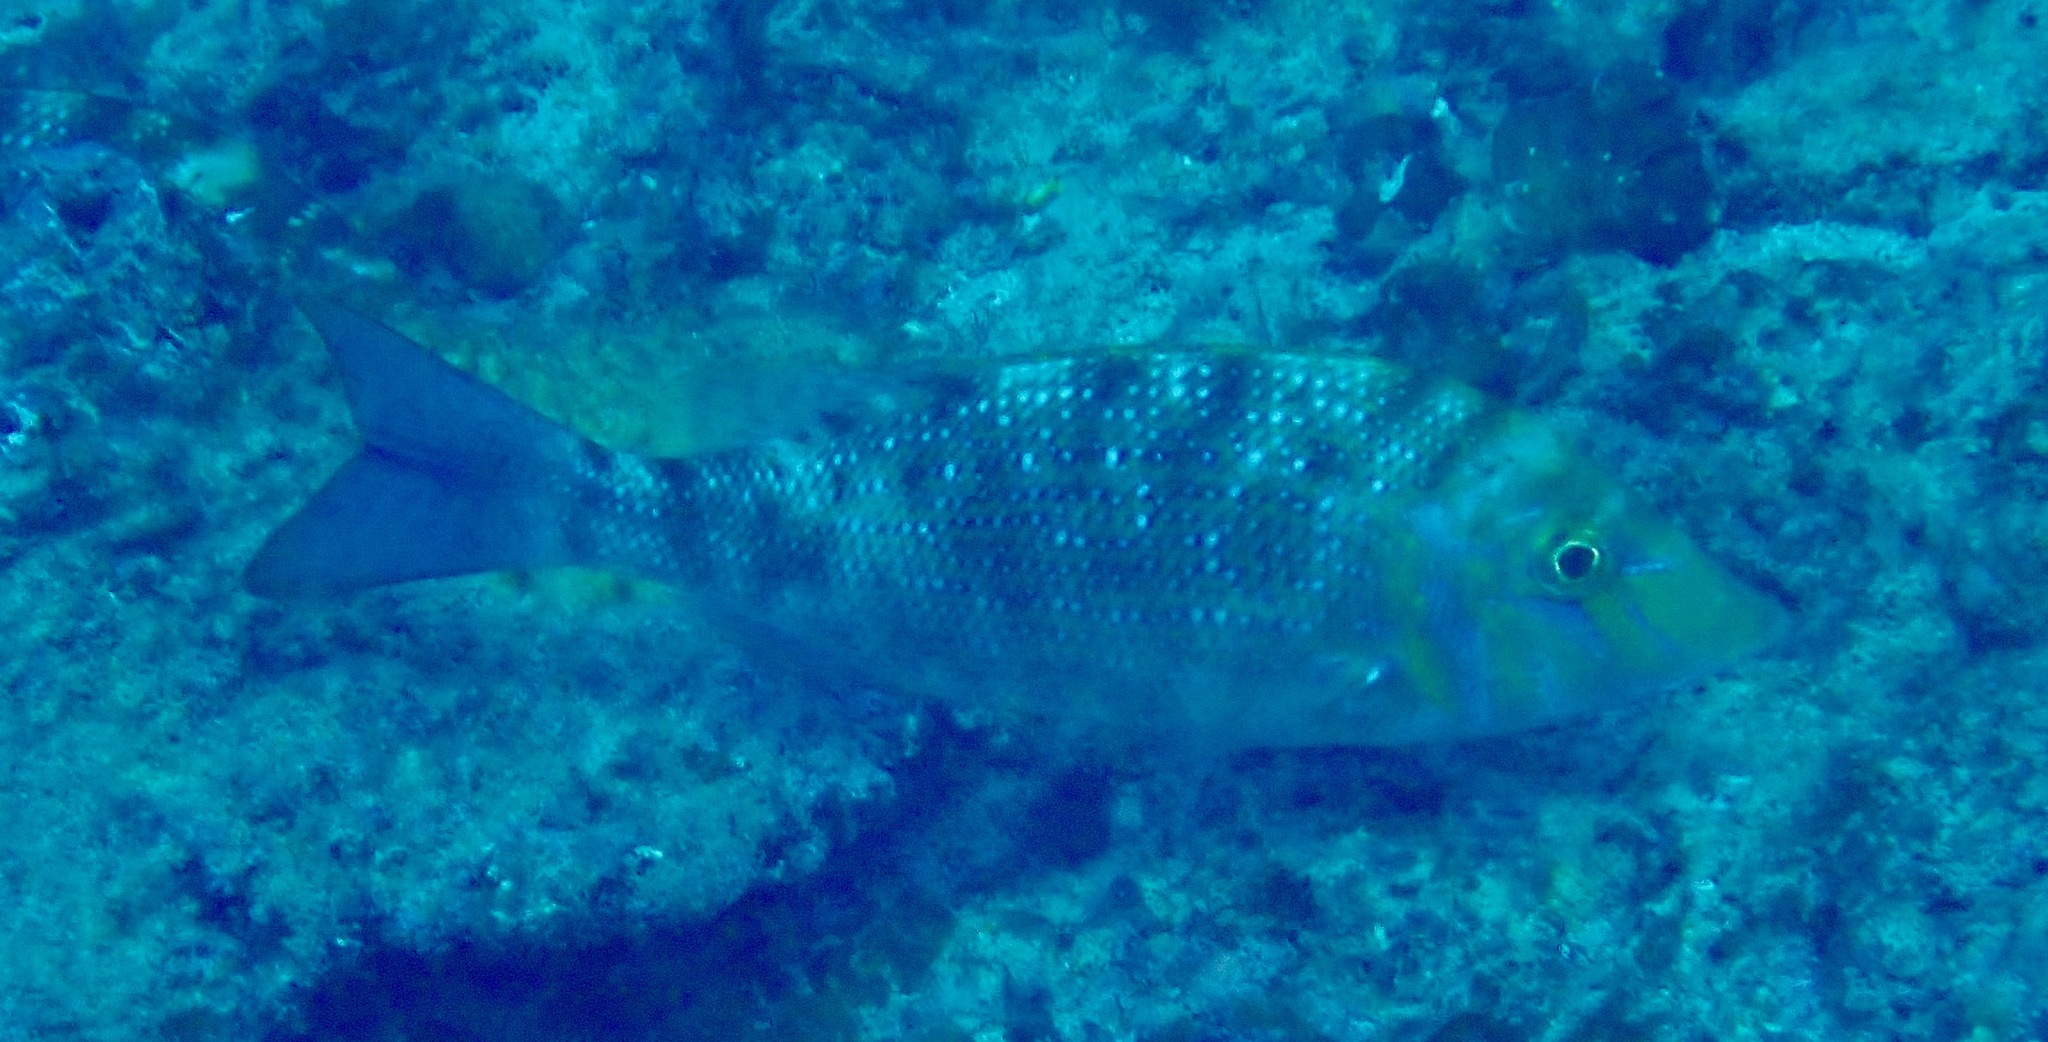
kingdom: Animalia
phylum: Chordata
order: Perciformes
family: Lethrinidae
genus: Lethrinus
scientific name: Lethrinus nebulosus
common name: Spangled emperor
